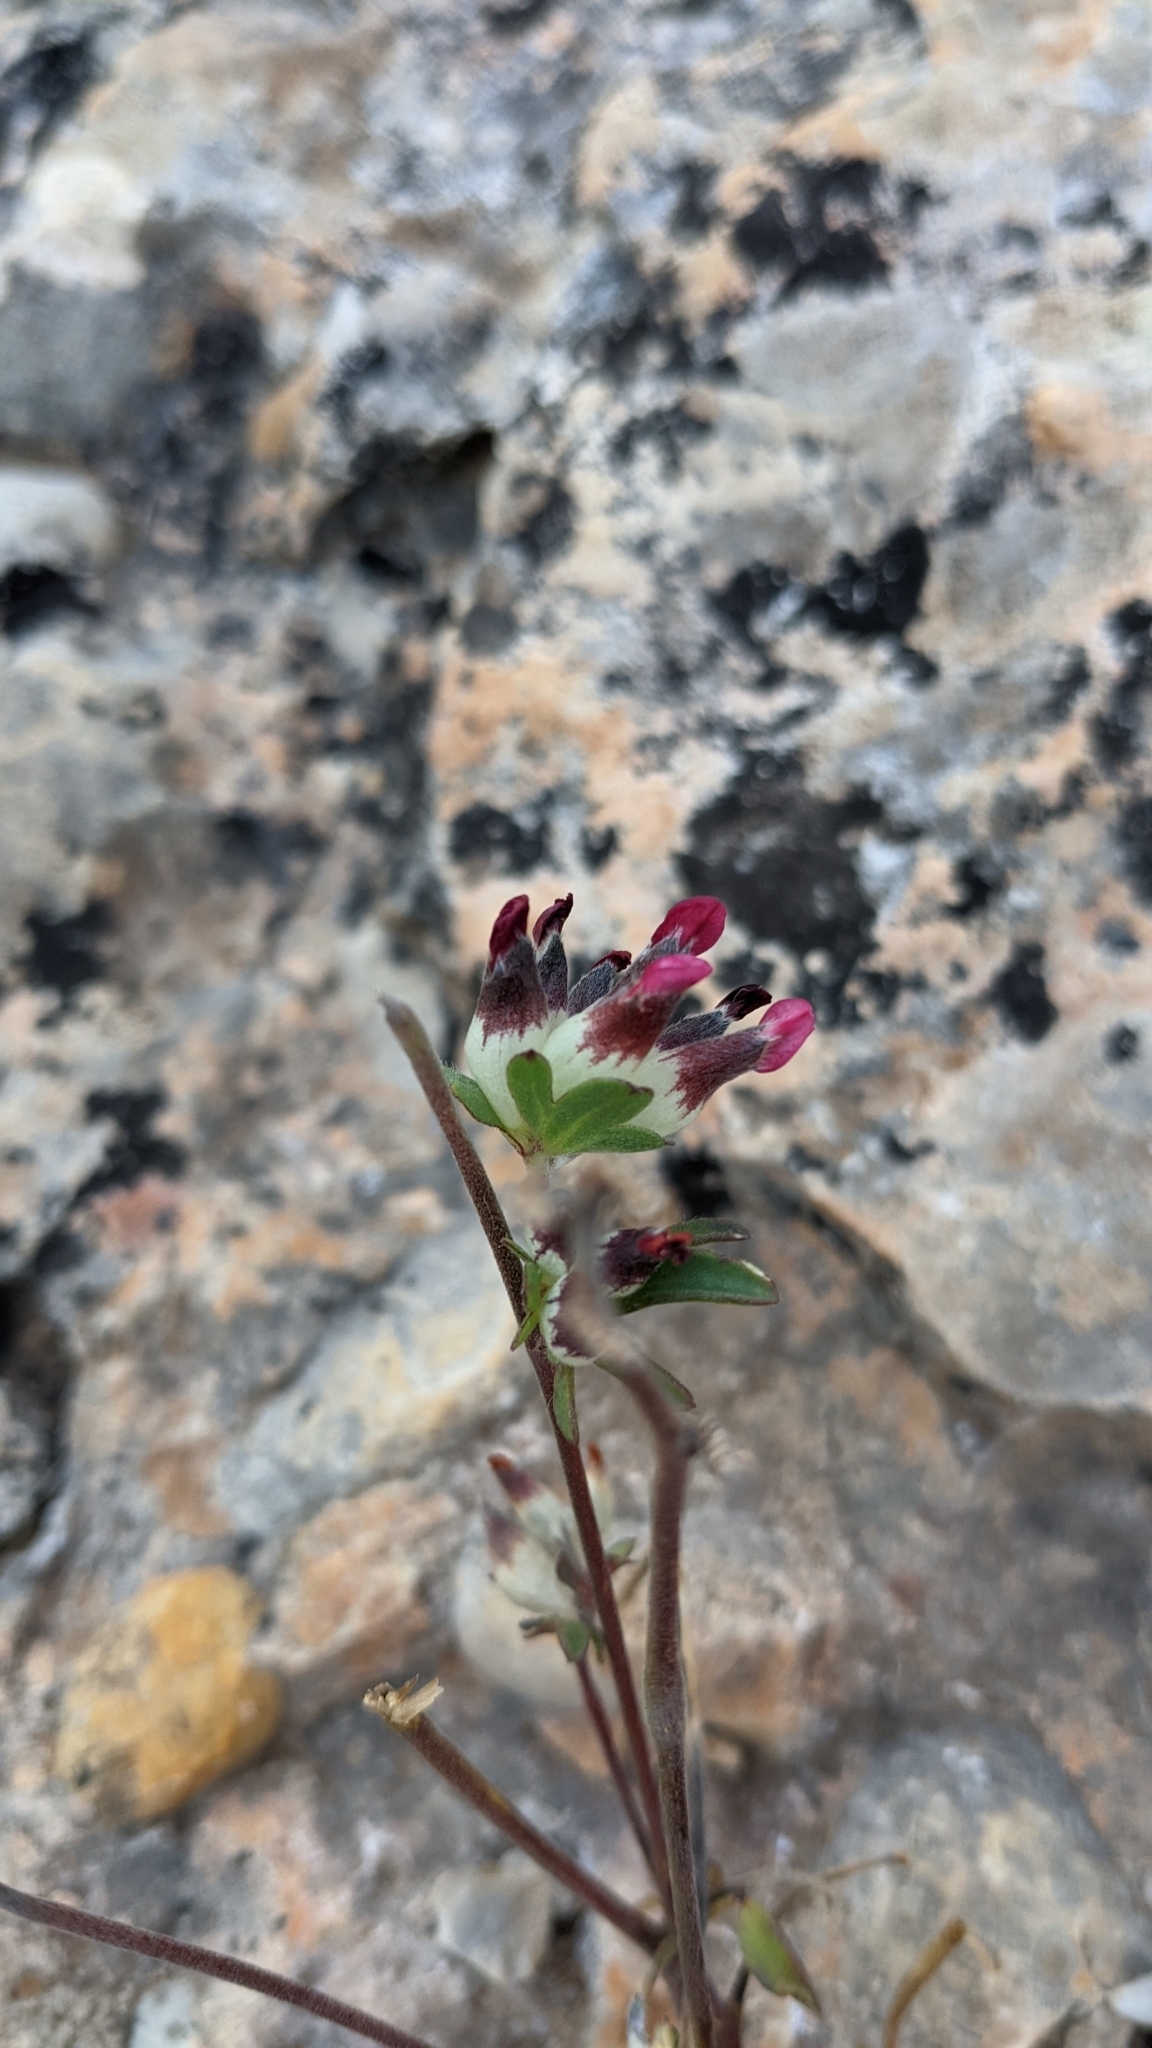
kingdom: Plantae
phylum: Tracheophyta
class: Magnoliopsida
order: Fabales
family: Fabaceae
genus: Anthyllis
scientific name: Anthyllis vulneraria
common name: Kidney vetch
